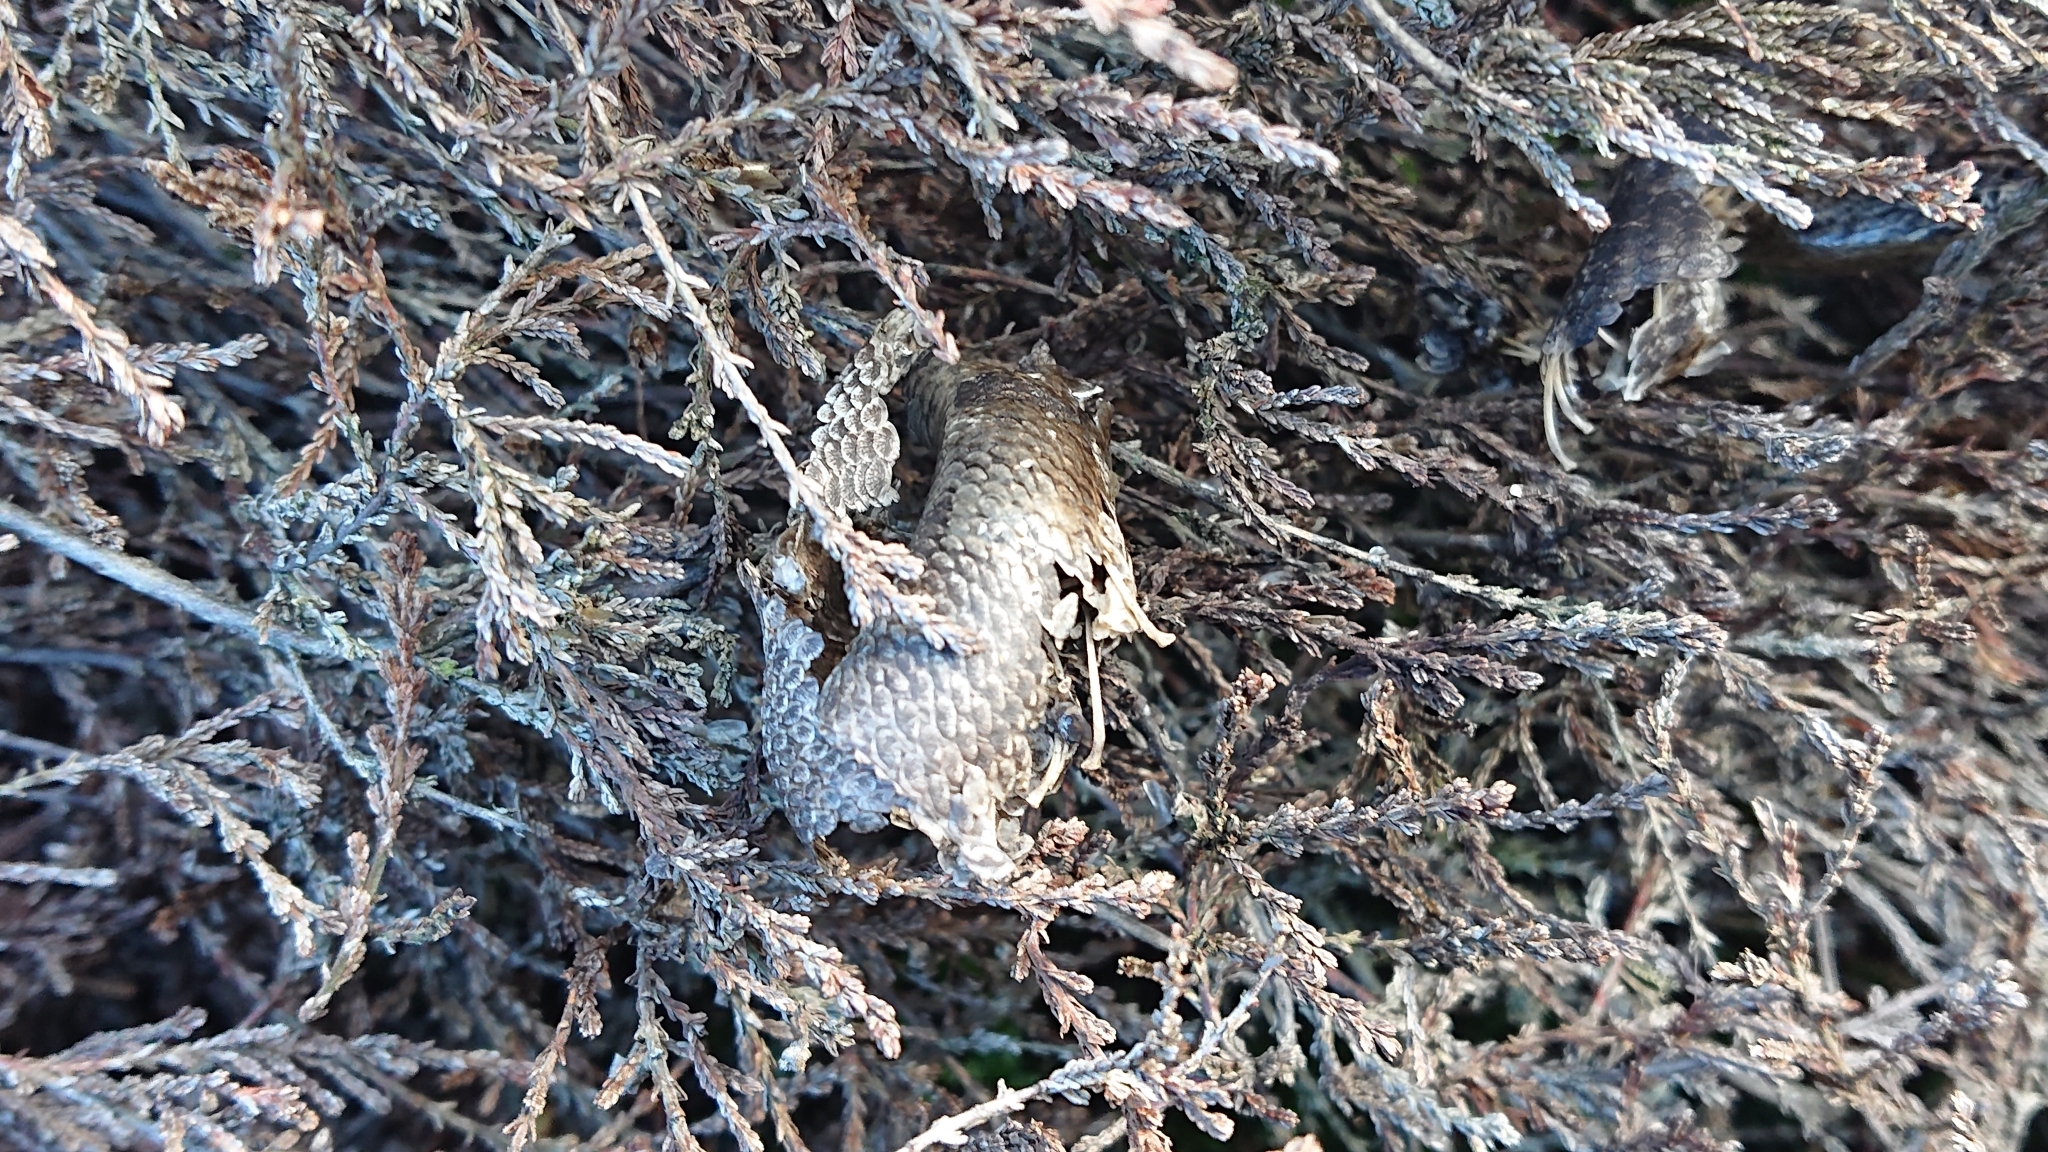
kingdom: Animalia
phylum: Chordata
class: Squamata
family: Anguidae
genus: Anguis
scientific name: Anguis fragilis
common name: Slow worm
